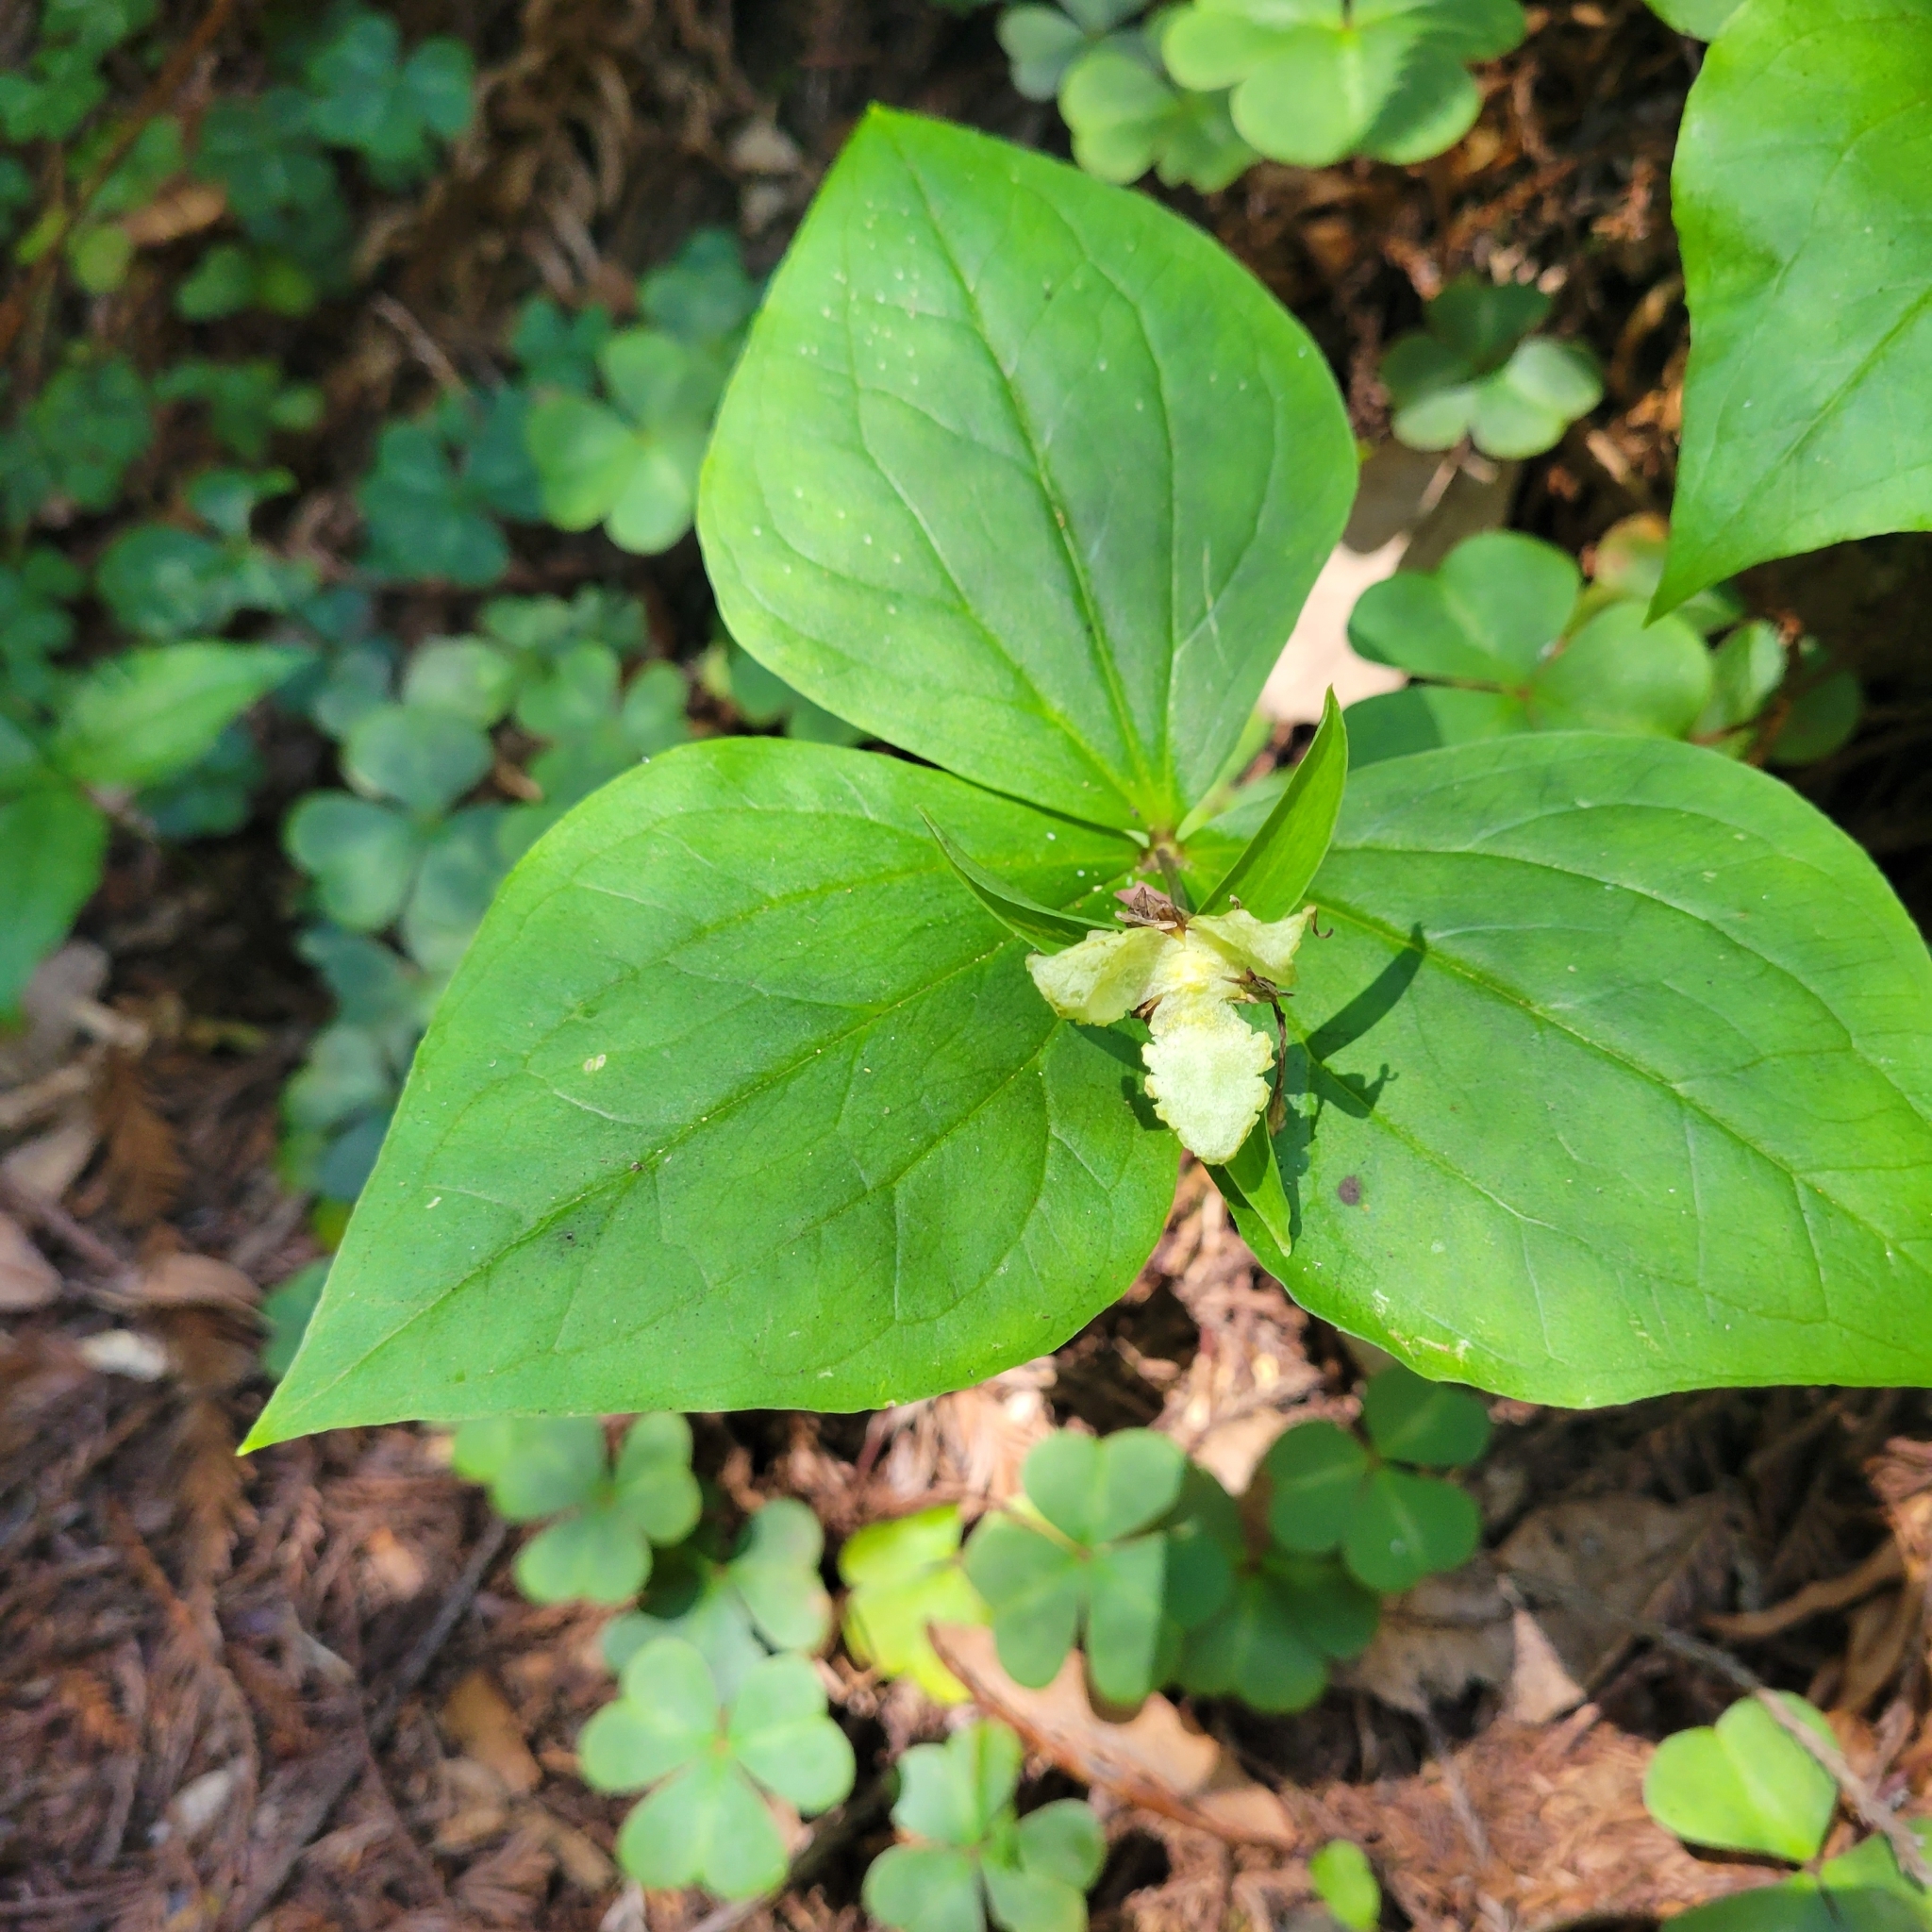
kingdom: Plantae
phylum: Tracheophyta
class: Liliopsida
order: Liliales
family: Melanthiaceae
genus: Trillium
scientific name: Trillium ovatum
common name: Pacific trillium
